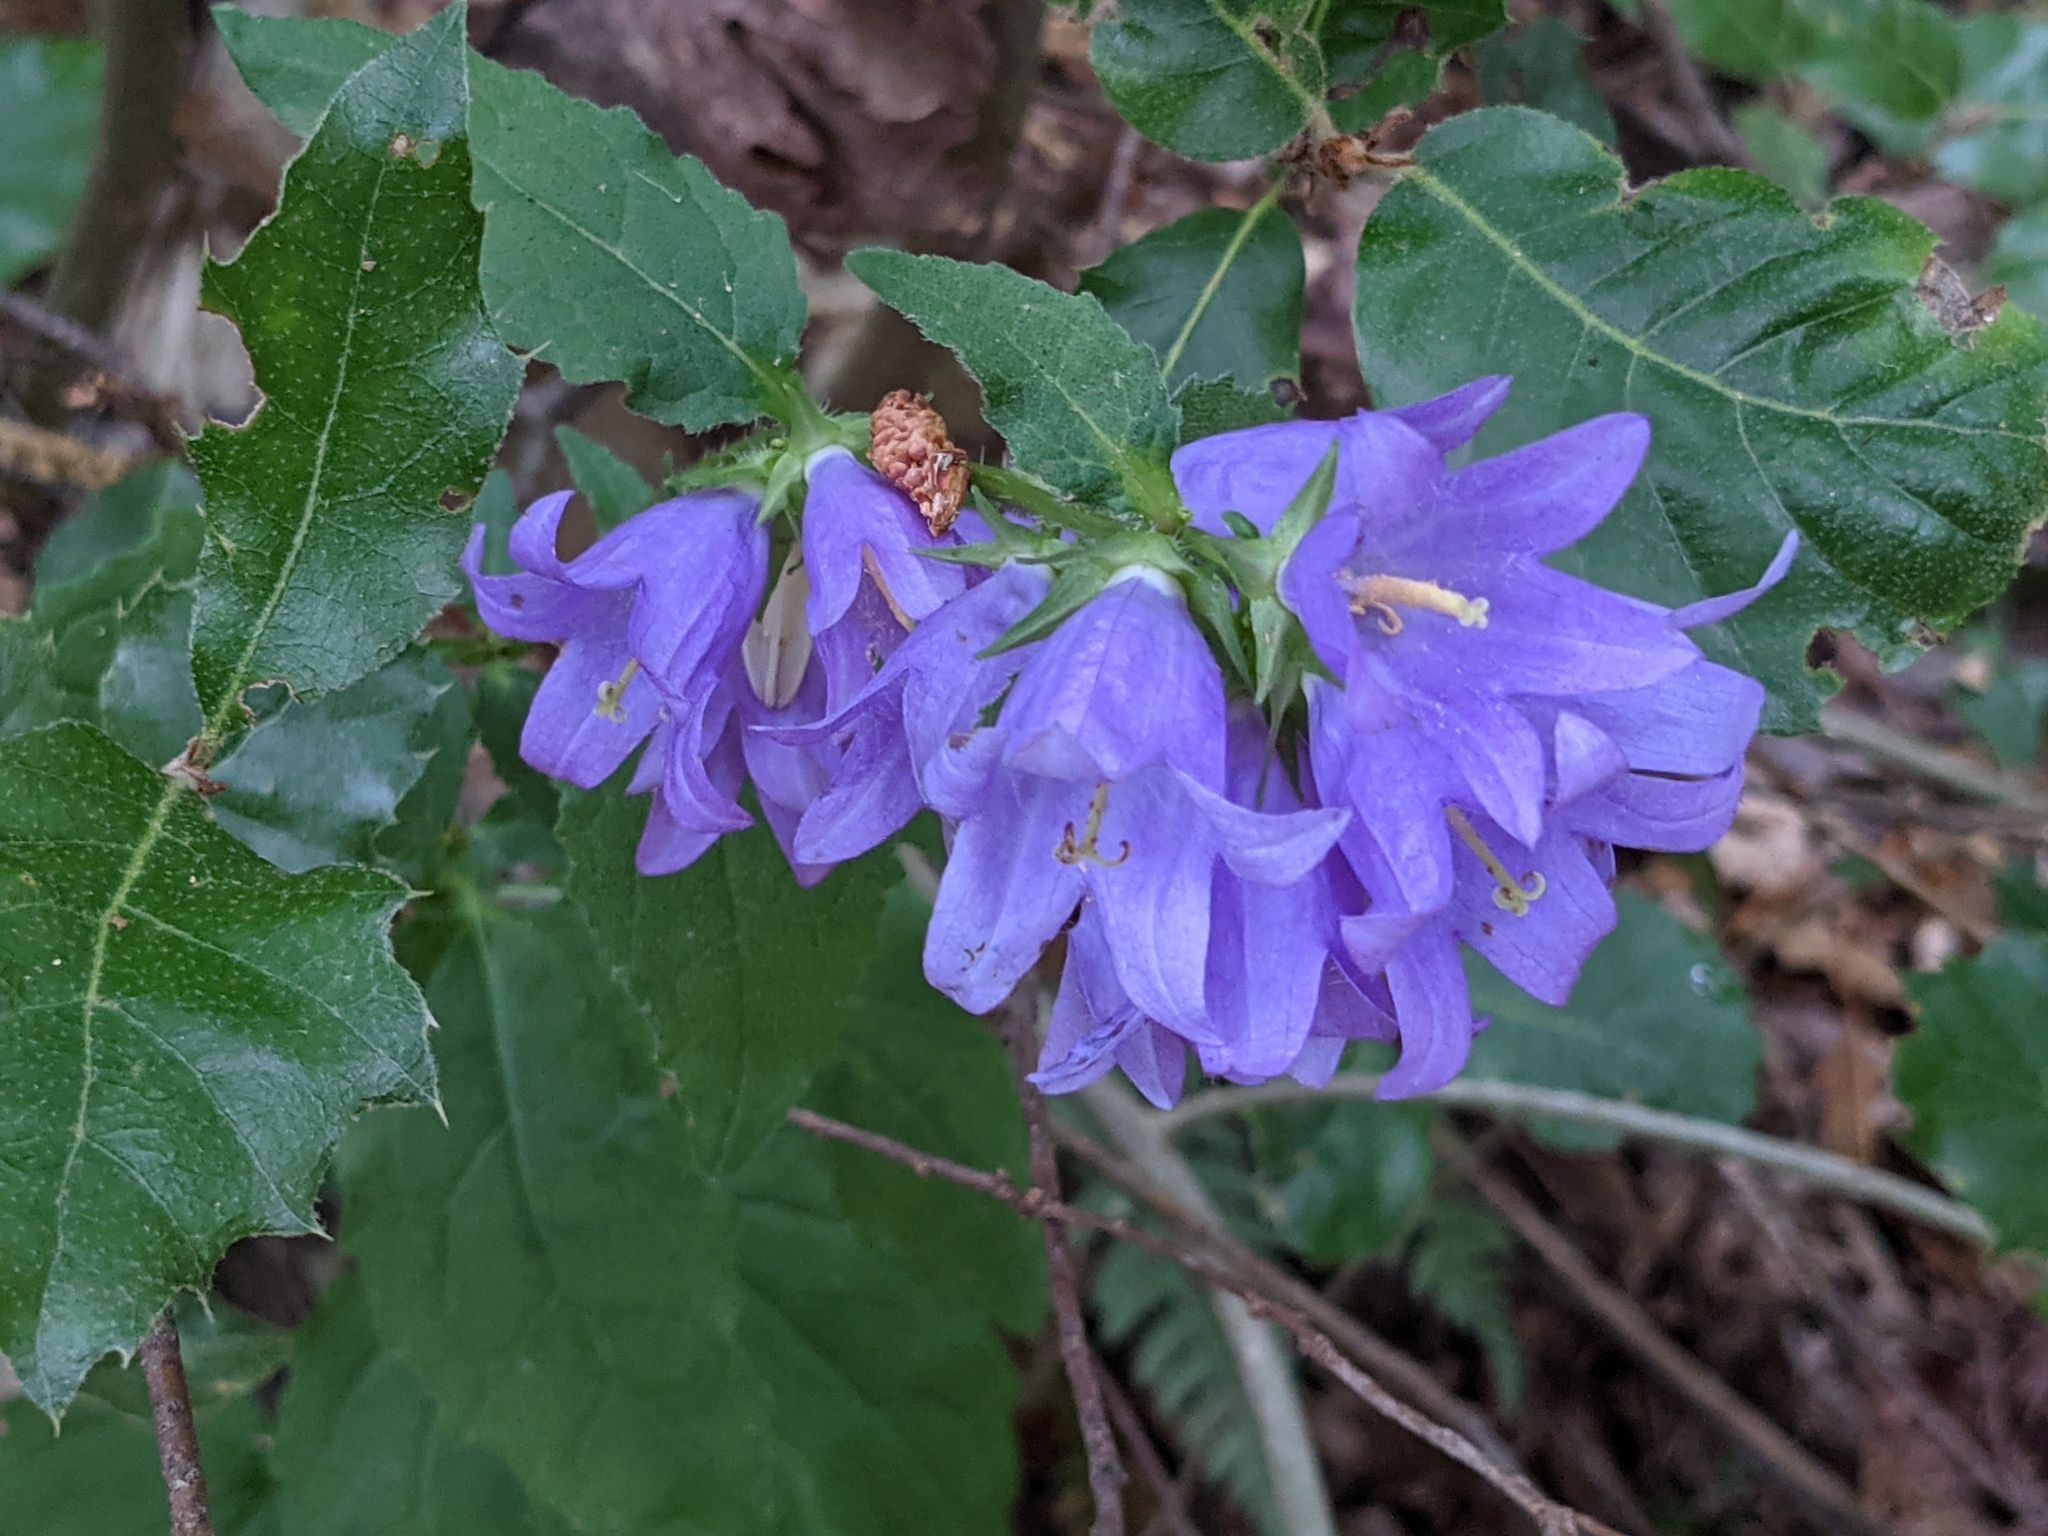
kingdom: Plantae
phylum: Tracheophyta
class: Magnoliopsida
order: Asterales
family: Campanulaceae
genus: Campanula
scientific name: Campanula trachelium
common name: Nettle-leaved bellflower
